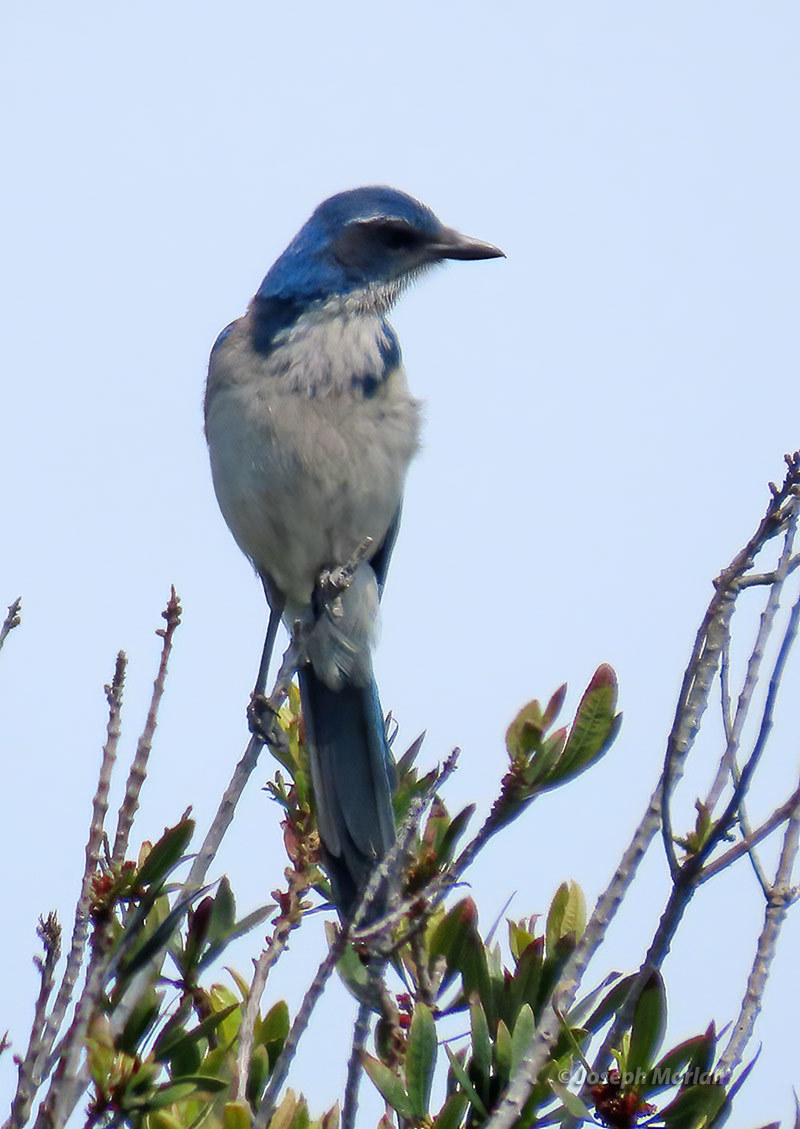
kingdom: Animalia
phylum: Chordata
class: Aves
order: Passeriformes
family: Corvidae
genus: Aphelocoma
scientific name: Aphelocoma californica
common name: California scrub-jay
